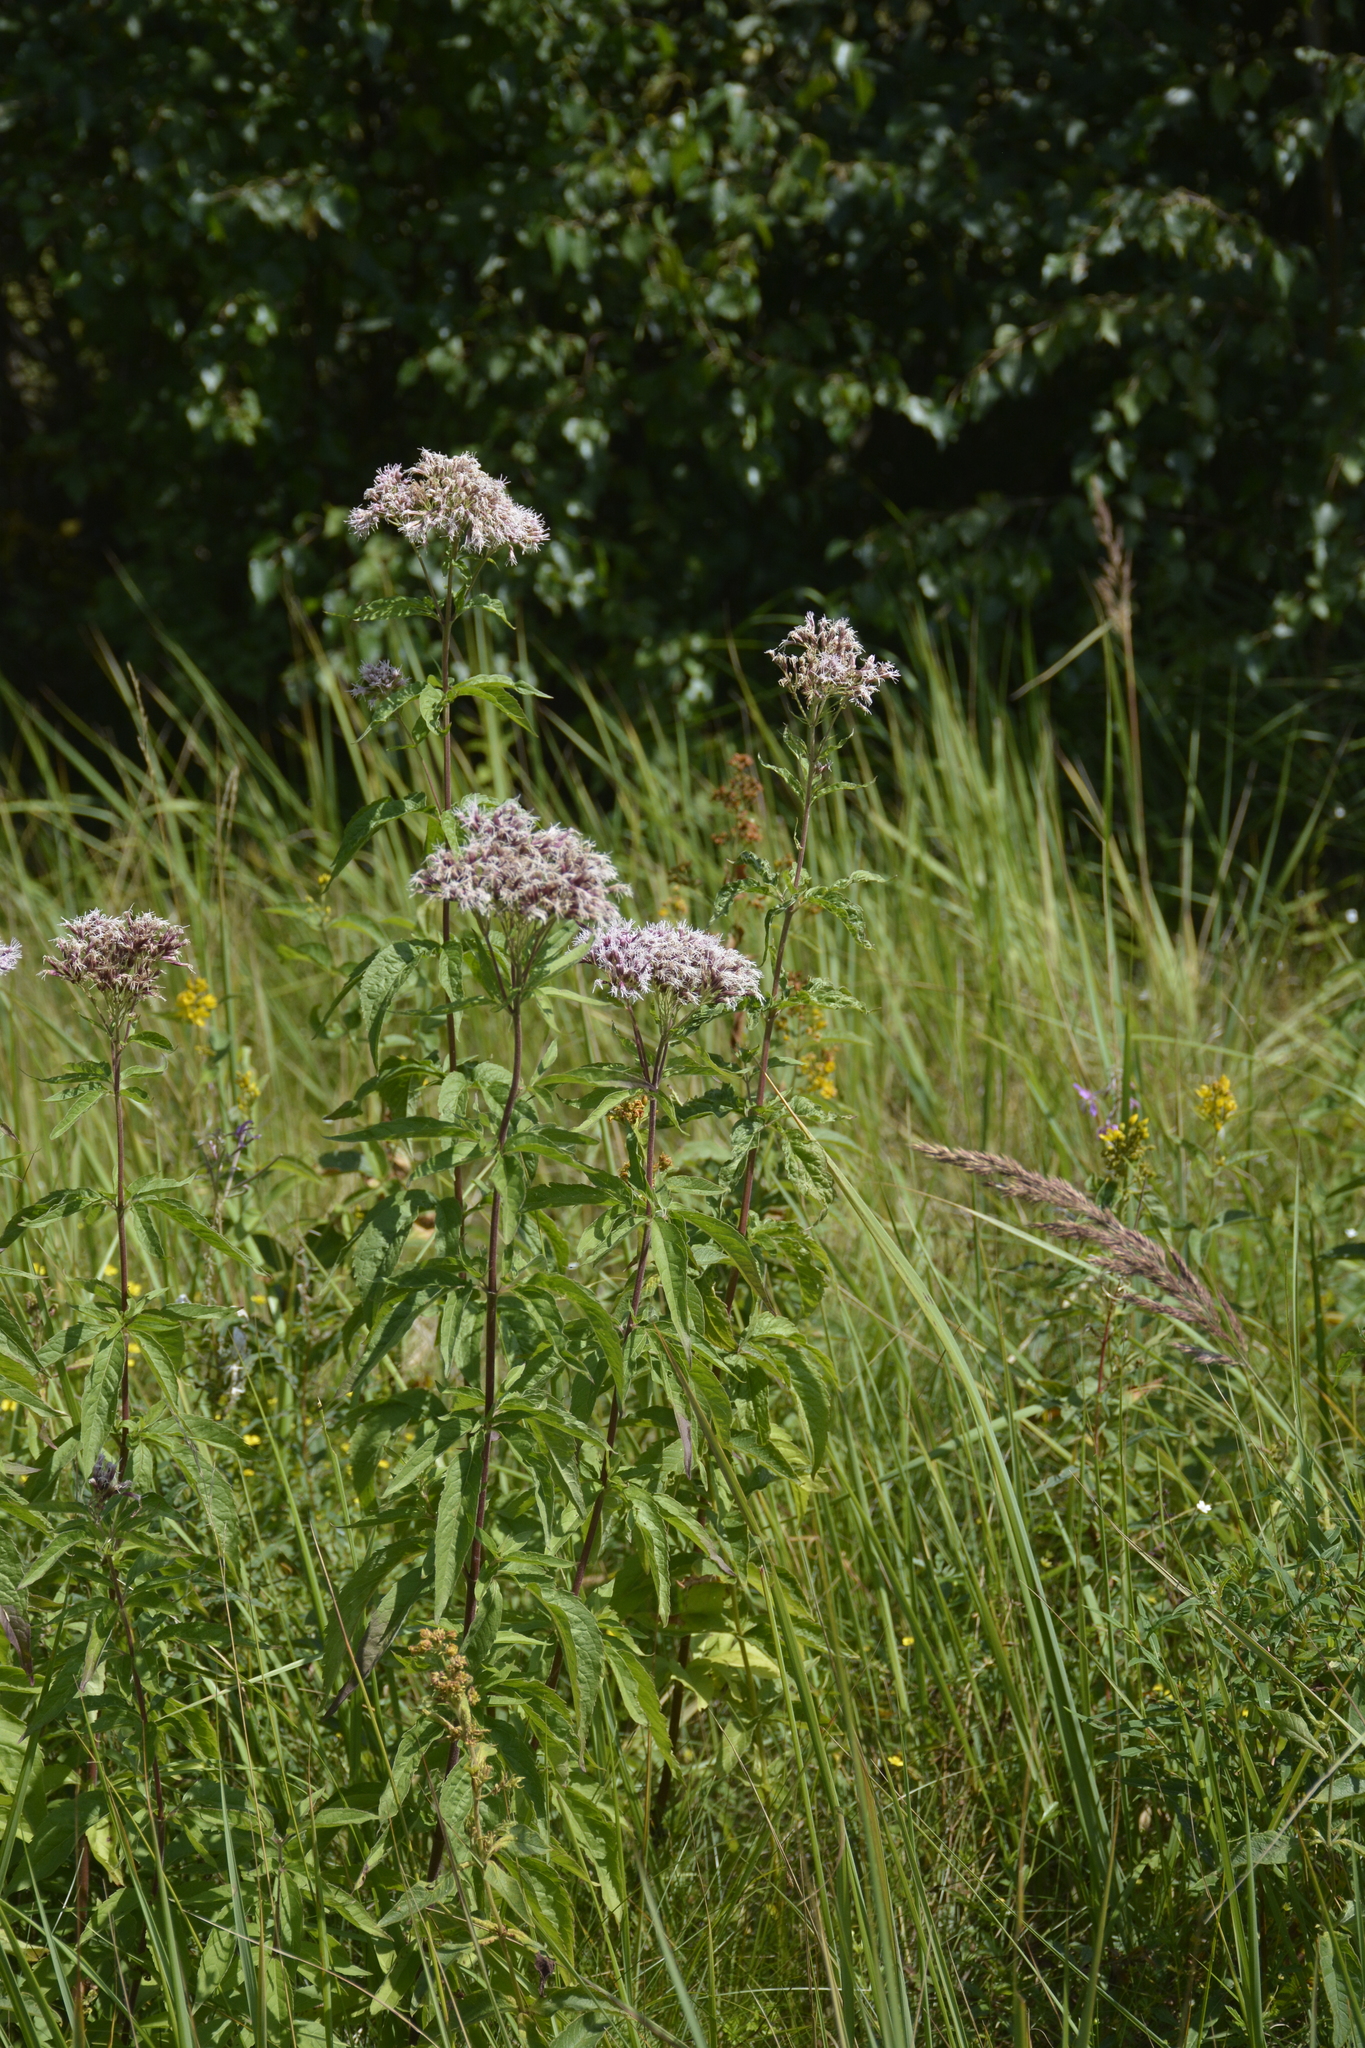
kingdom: Plantae
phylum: Tracheophyta
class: Magnoliopsida
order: Asterales
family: Asteraceae
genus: Eupatorium
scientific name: Eupatorium cannabinum
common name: Hemp-agrimony
